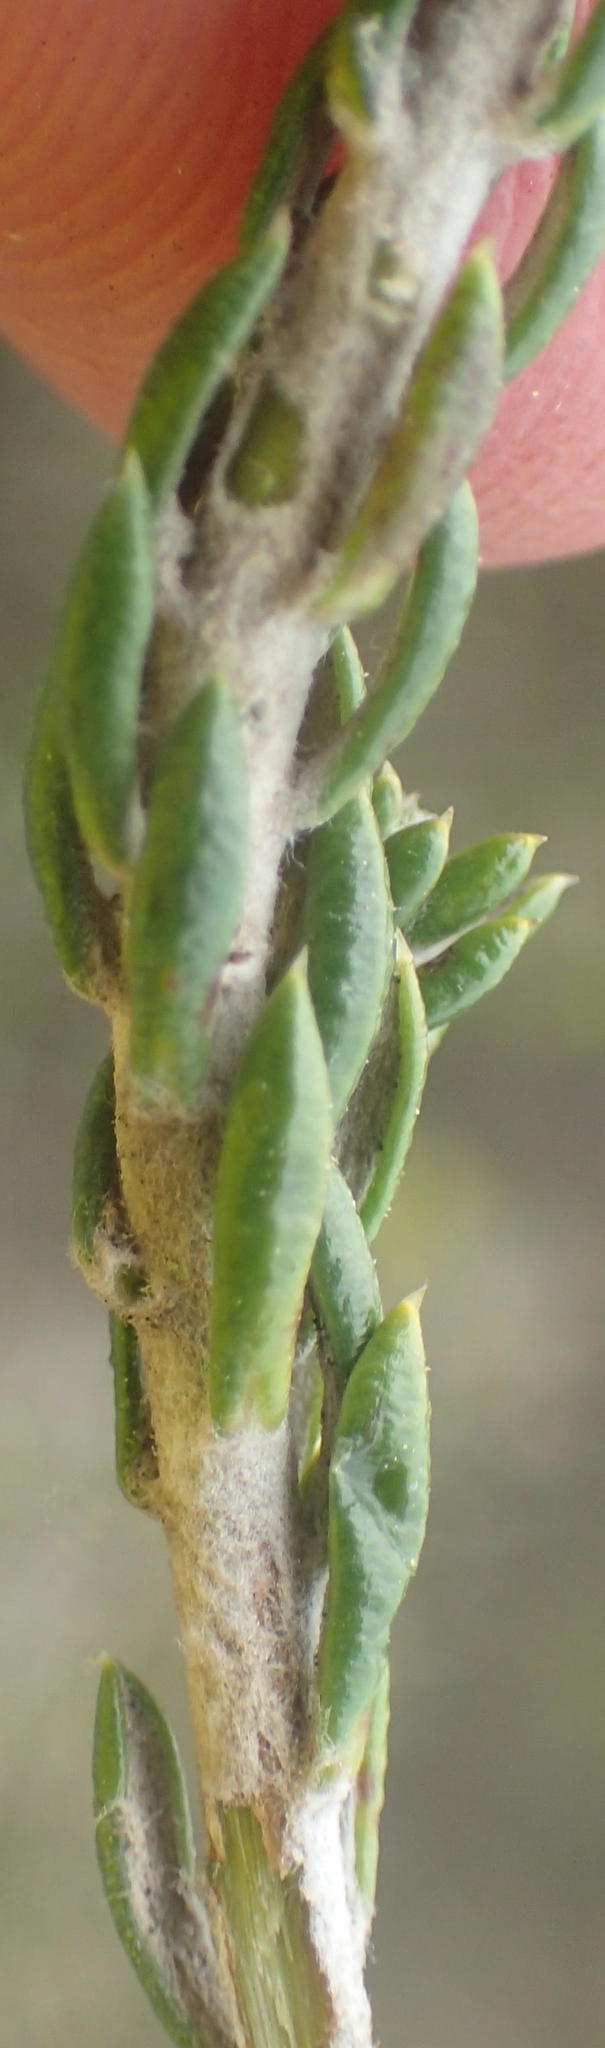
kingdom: Plantae
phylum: Tracheophyta
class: Magnoliopsida
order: Asterales
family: Asteraceae
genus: Metalasia
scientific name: Metalasia pungens
